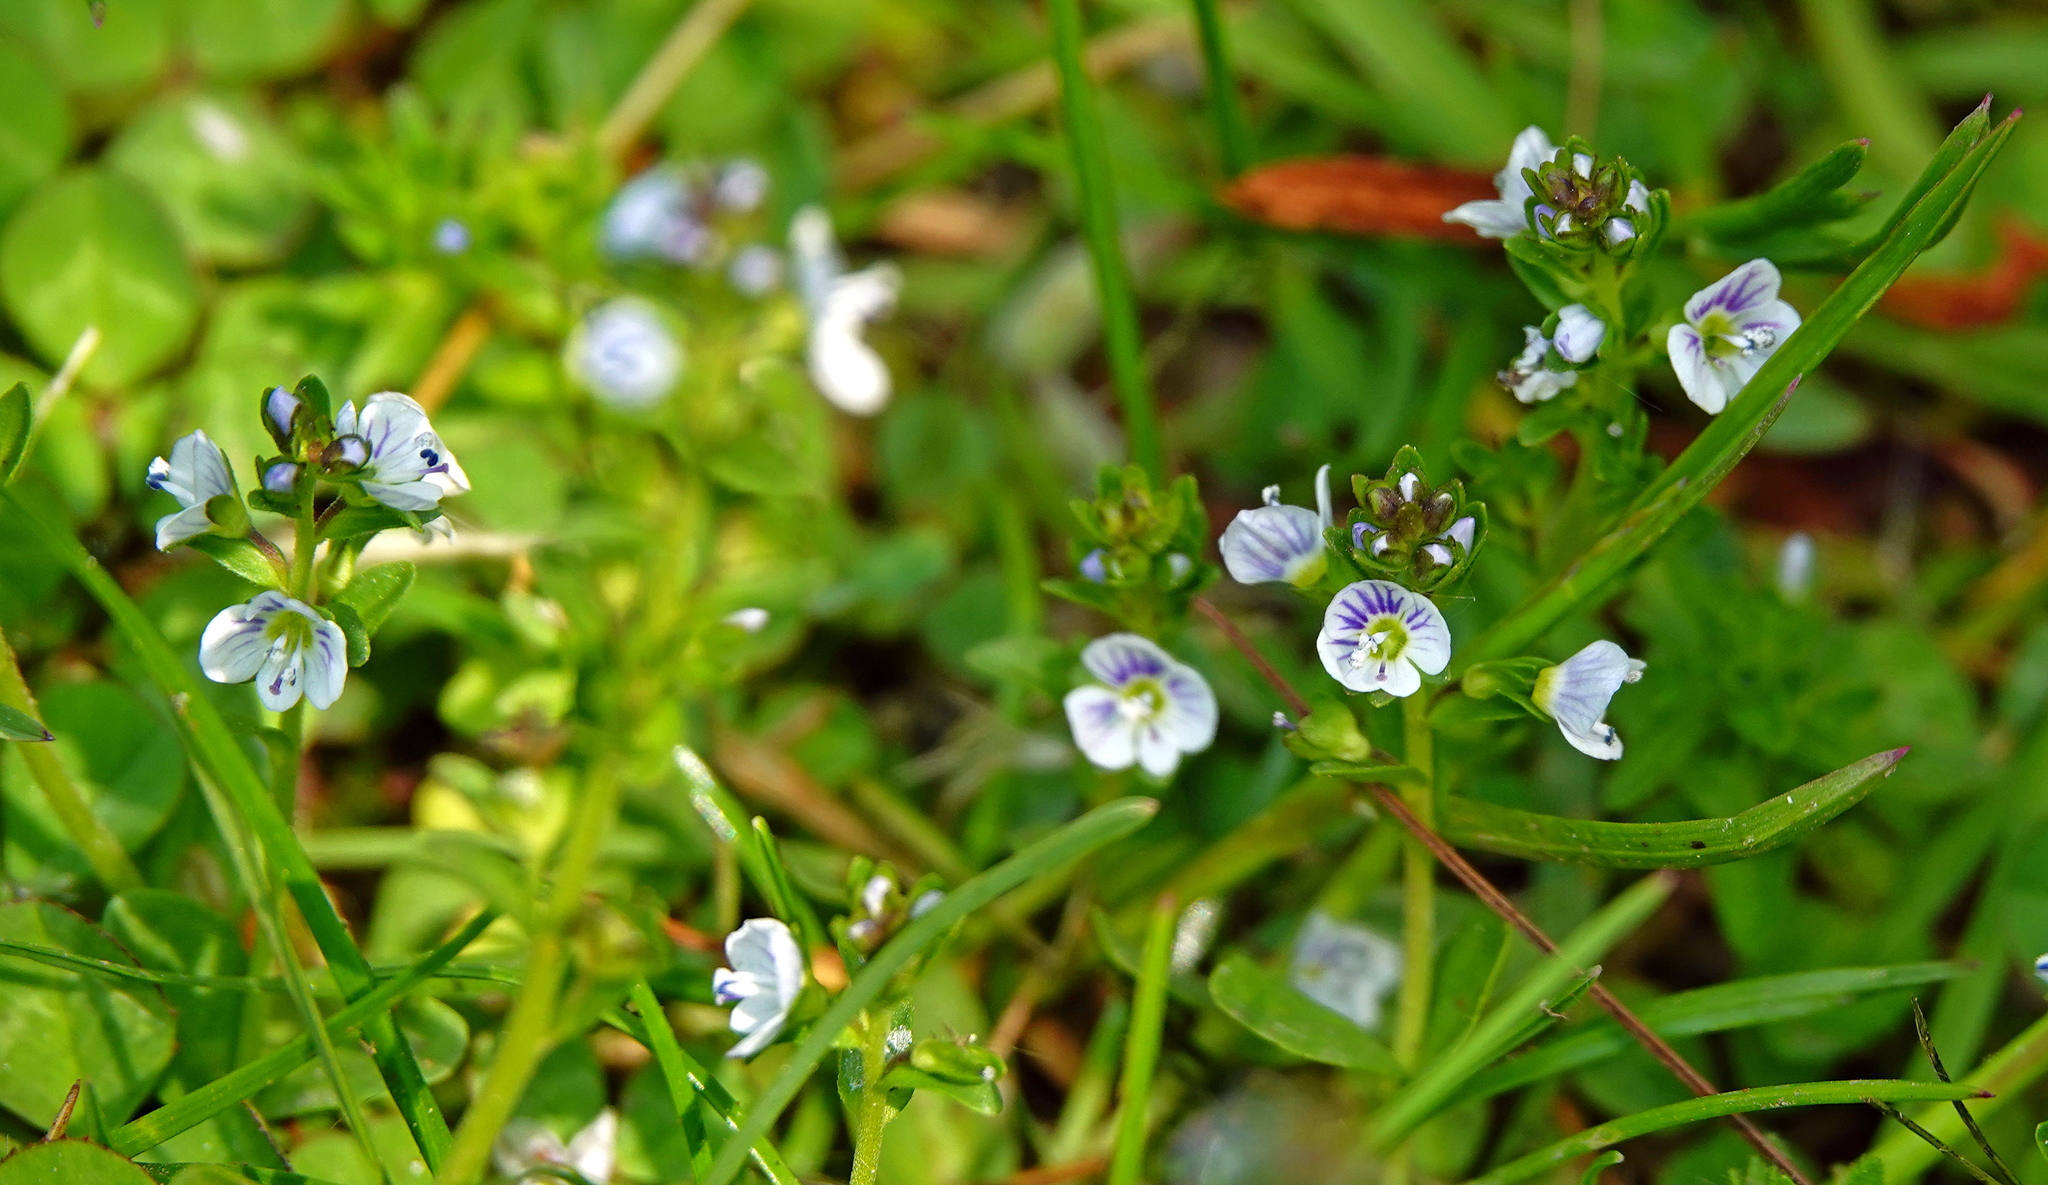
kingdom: Plantae
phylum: Tracheophyta
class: Magnoliopsida
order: Lamiales
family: Plantaginaceae
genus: Veronica
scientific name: Veronica serpyllifolia
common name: Thyme-leaved speedwell
